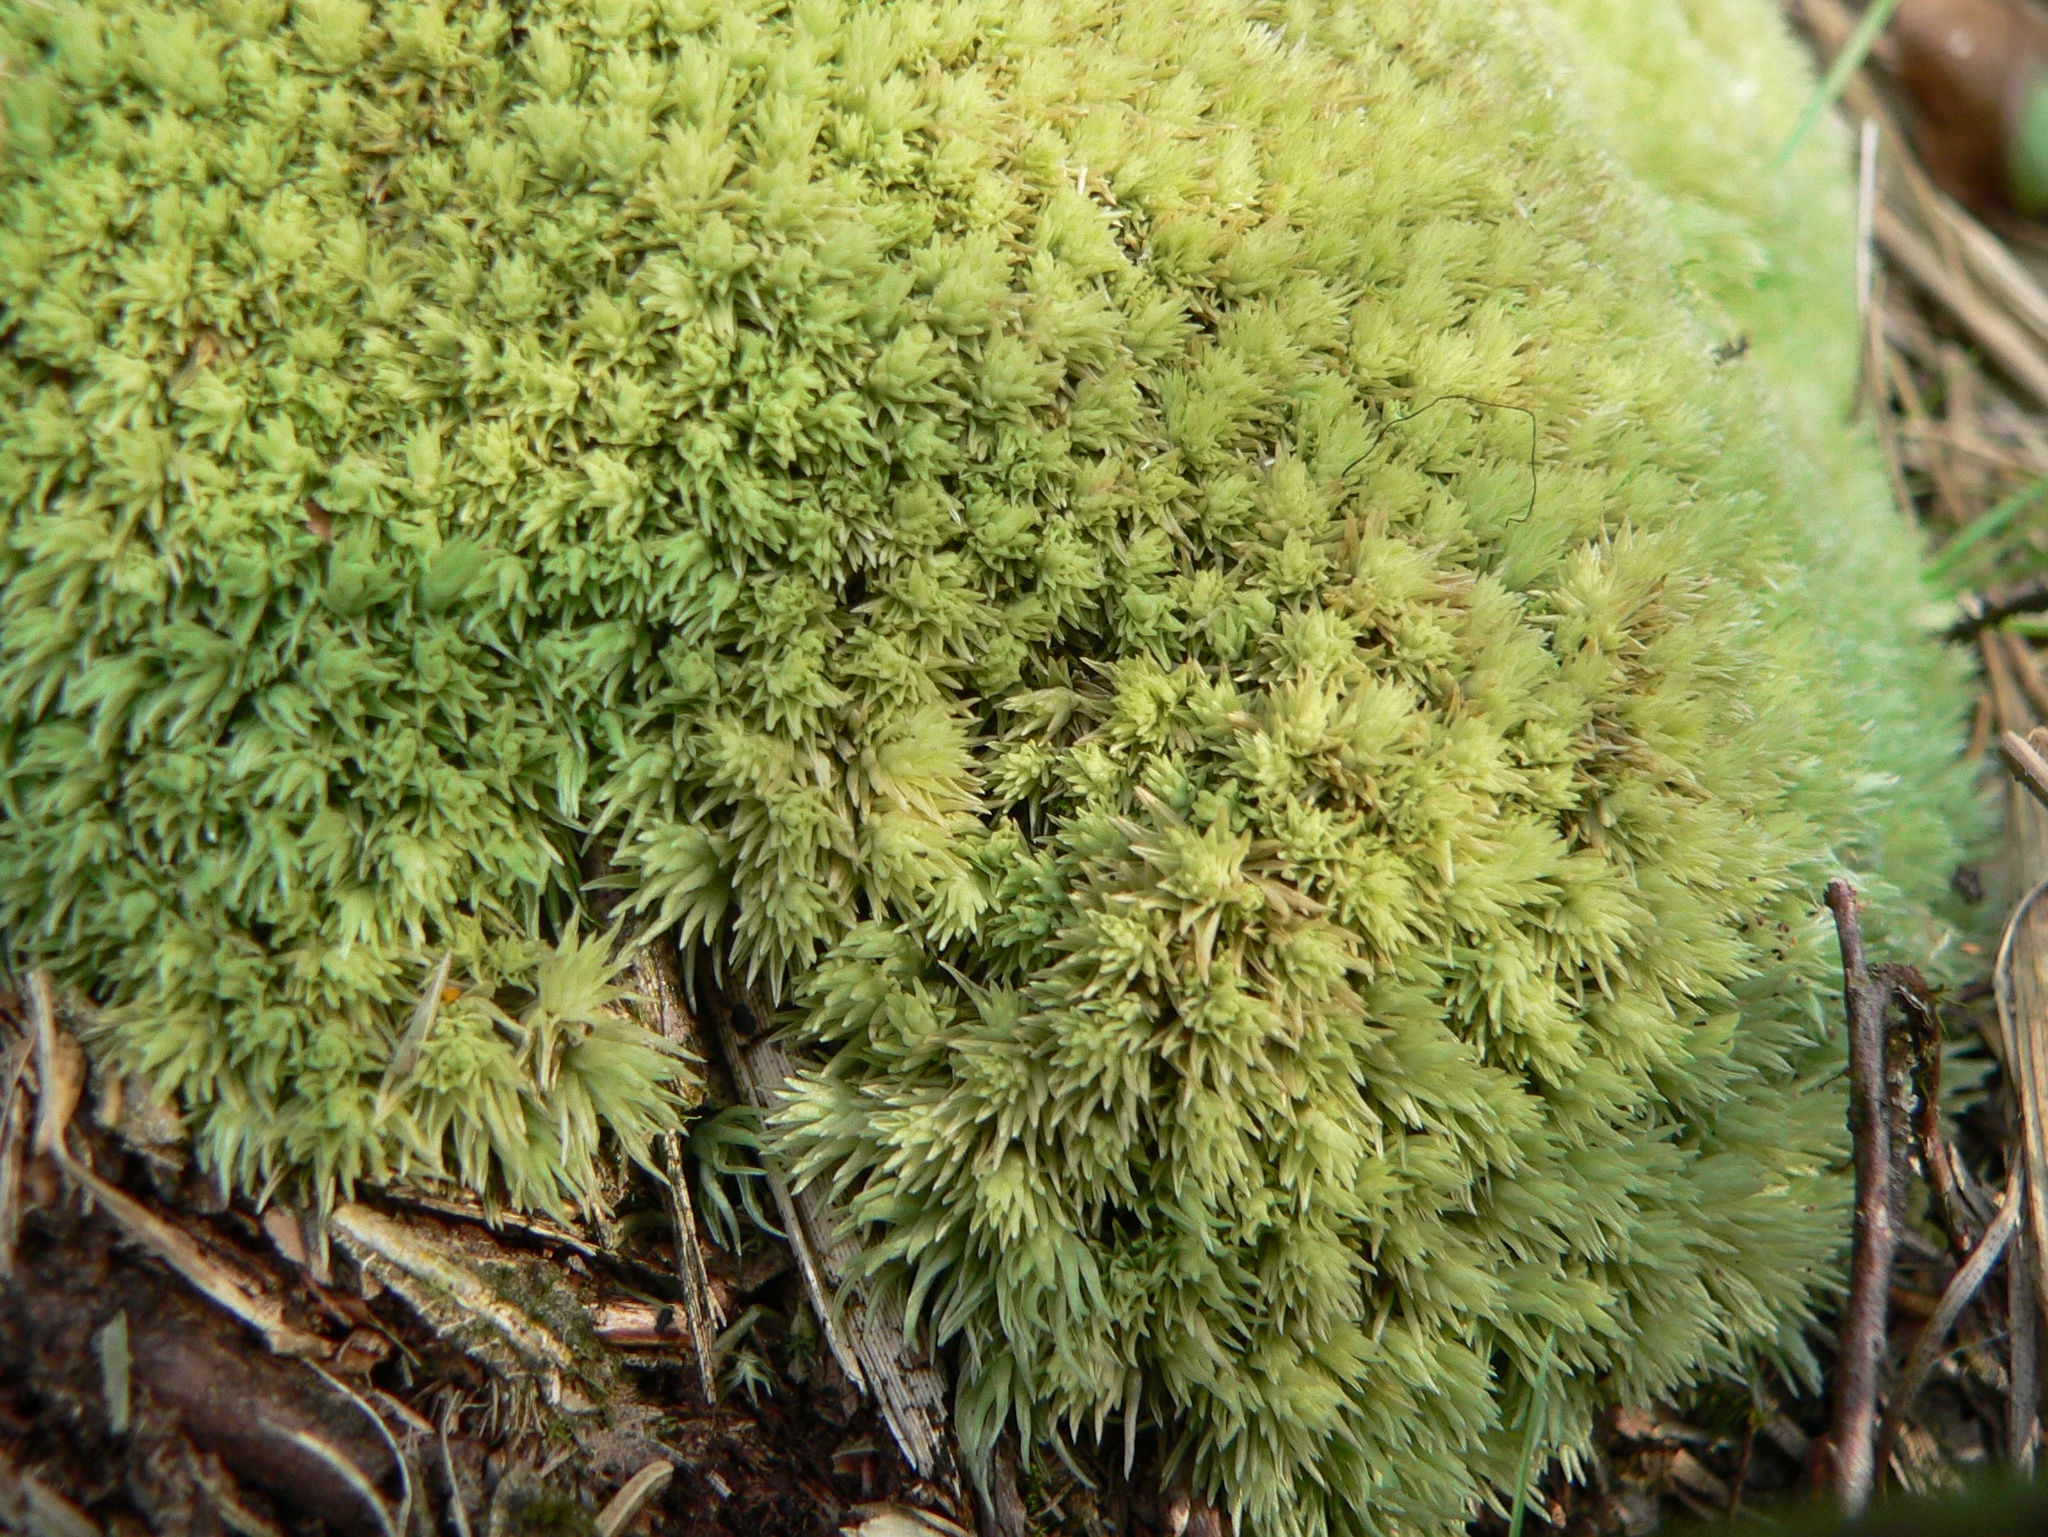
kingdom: Plantae
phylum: Bryophyta
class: Bryopsida
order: Dicranales
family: Leucobryaceae
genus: Leucobryum
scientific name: Leucobryum glaucum
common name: Large white-moss
